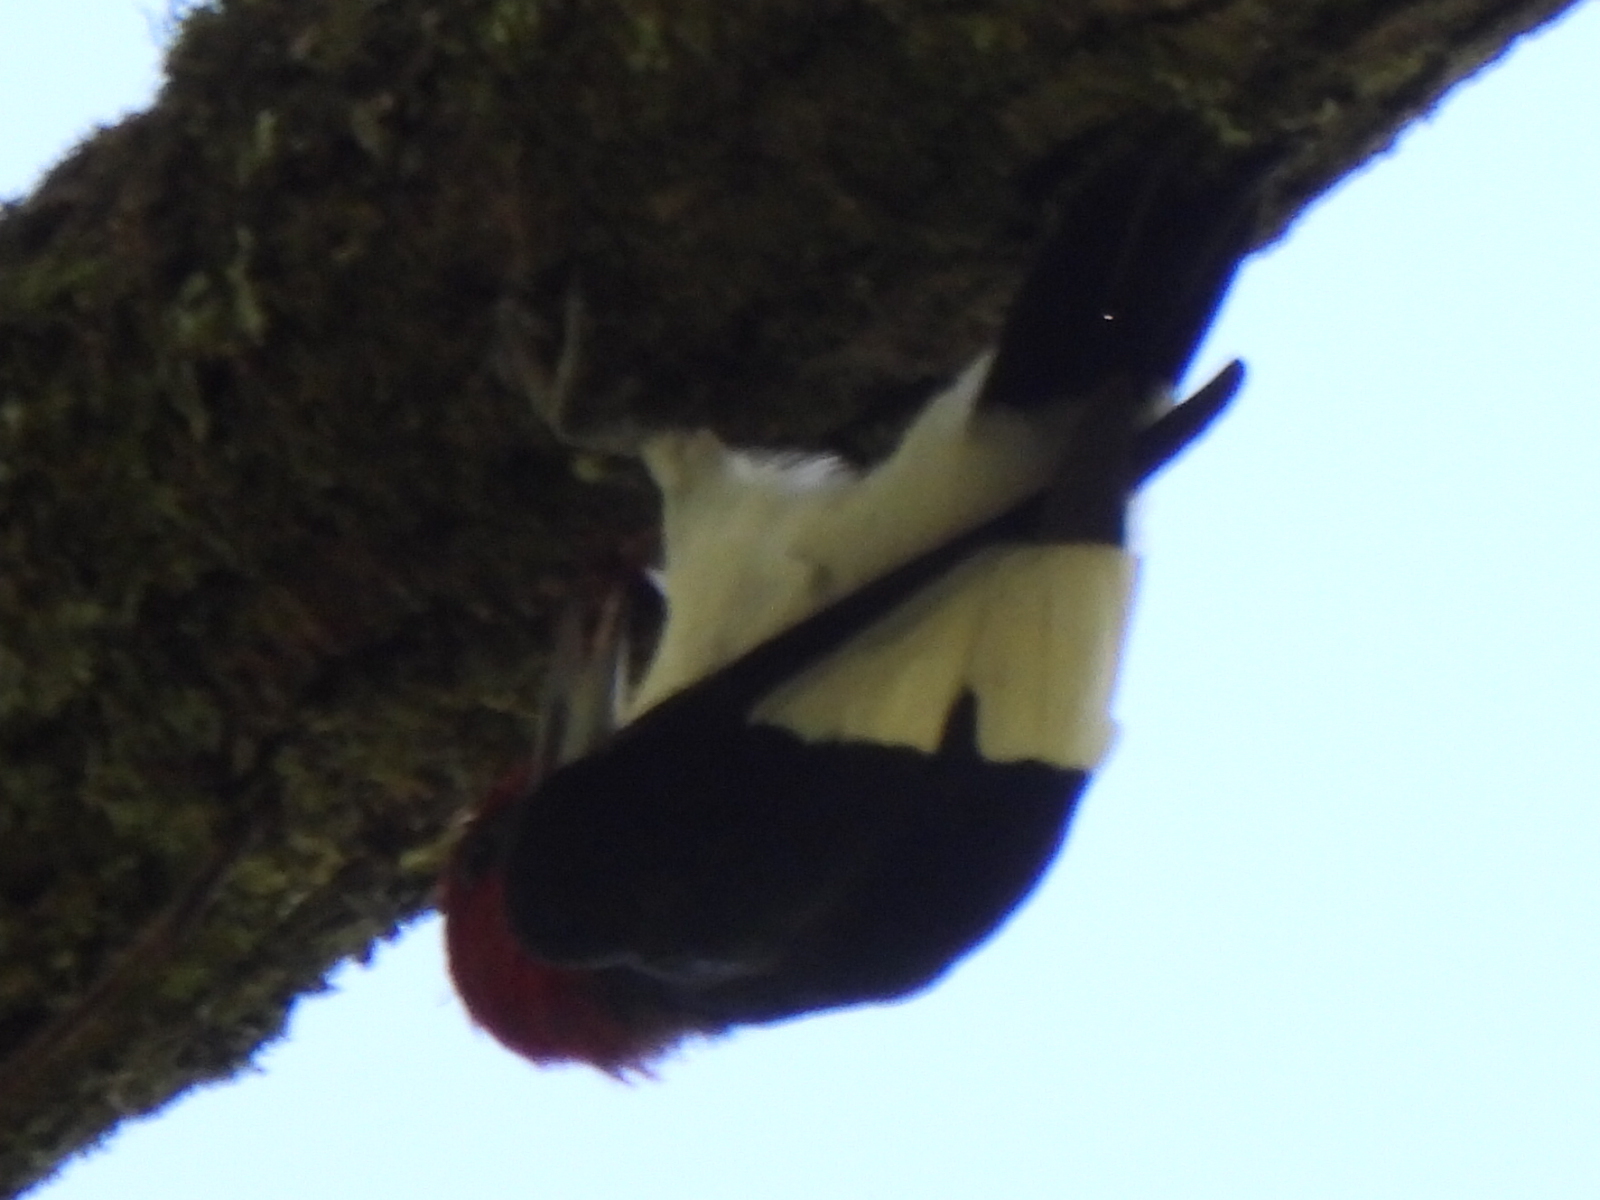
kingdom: Animalia
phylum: Chordata
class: Aves
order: Piciformes
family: Picidae
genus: Melanerpes
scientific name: Melanerpes erythrocephalus
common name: Red-headed woodpecker
